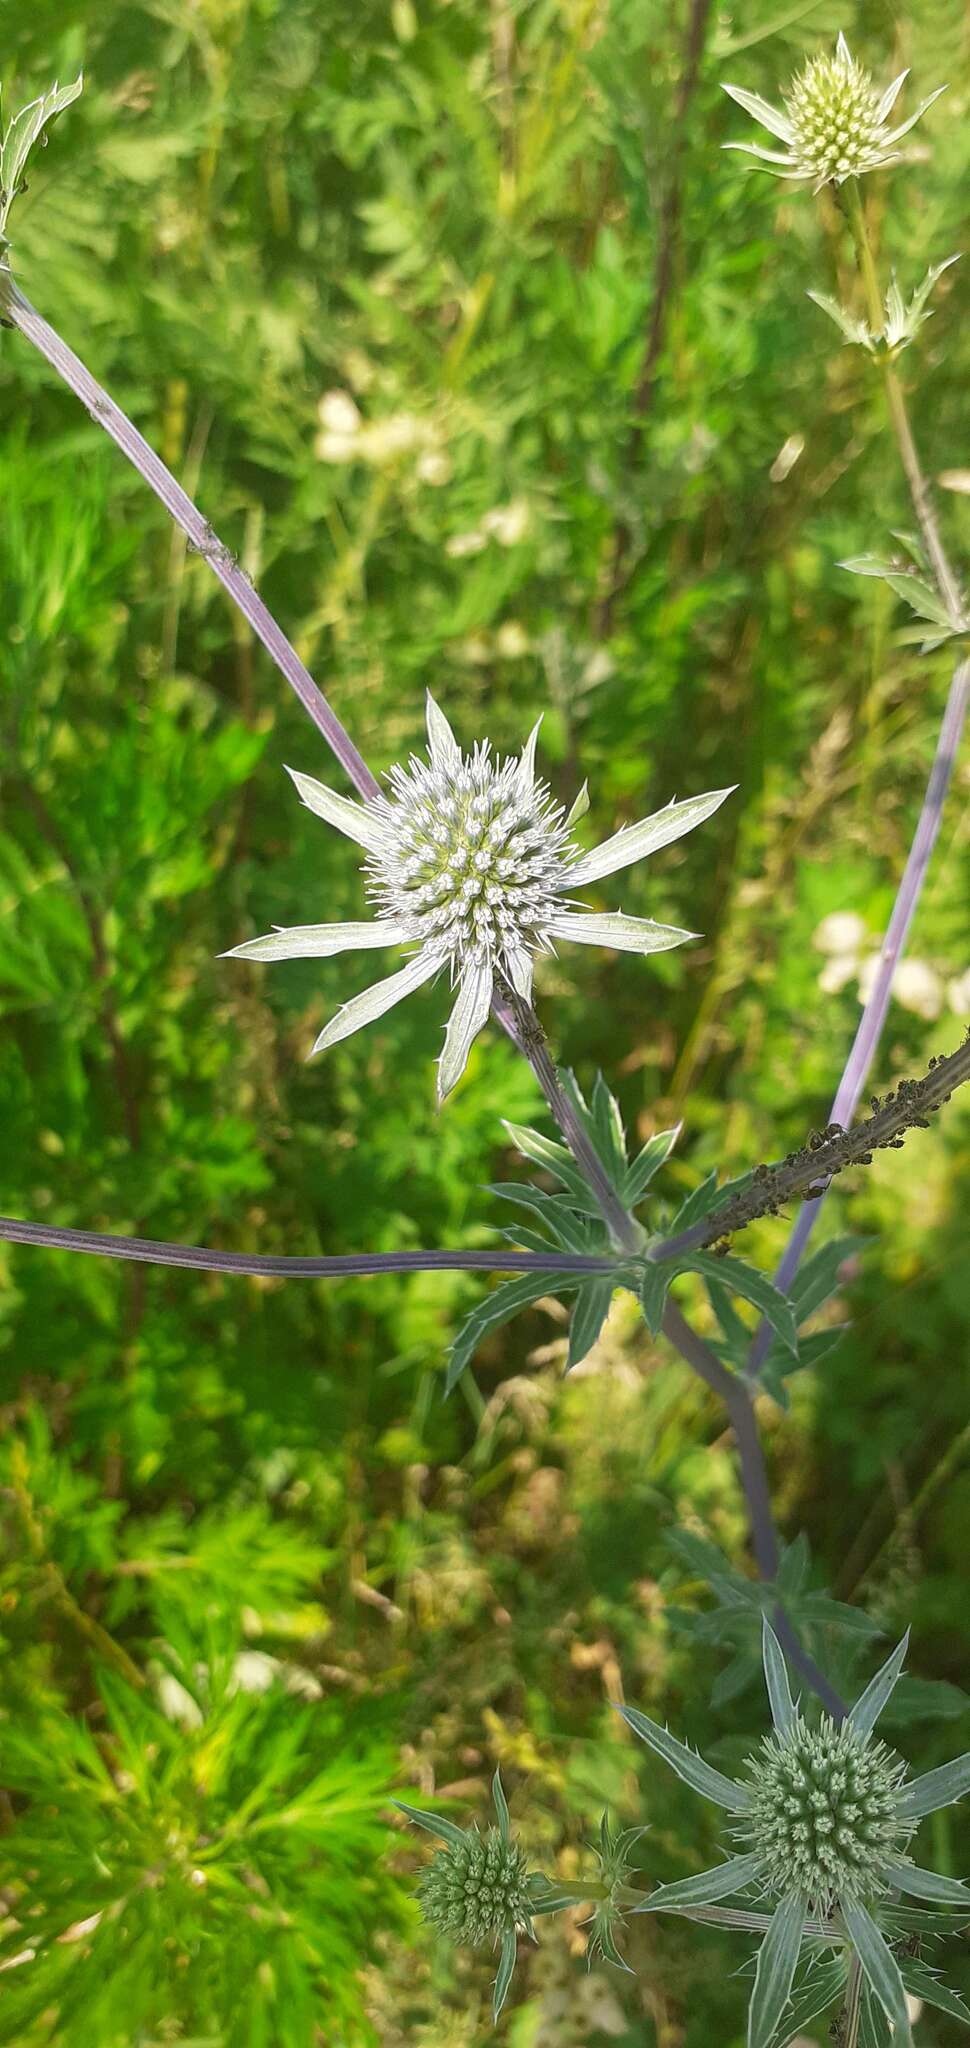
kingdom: Plantae
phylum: Tracheophyta
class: Magnoliopsida
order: Apiales
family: Apiaceae
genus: Eryngium
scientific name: Eryngium planum
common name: Blue eryngo
